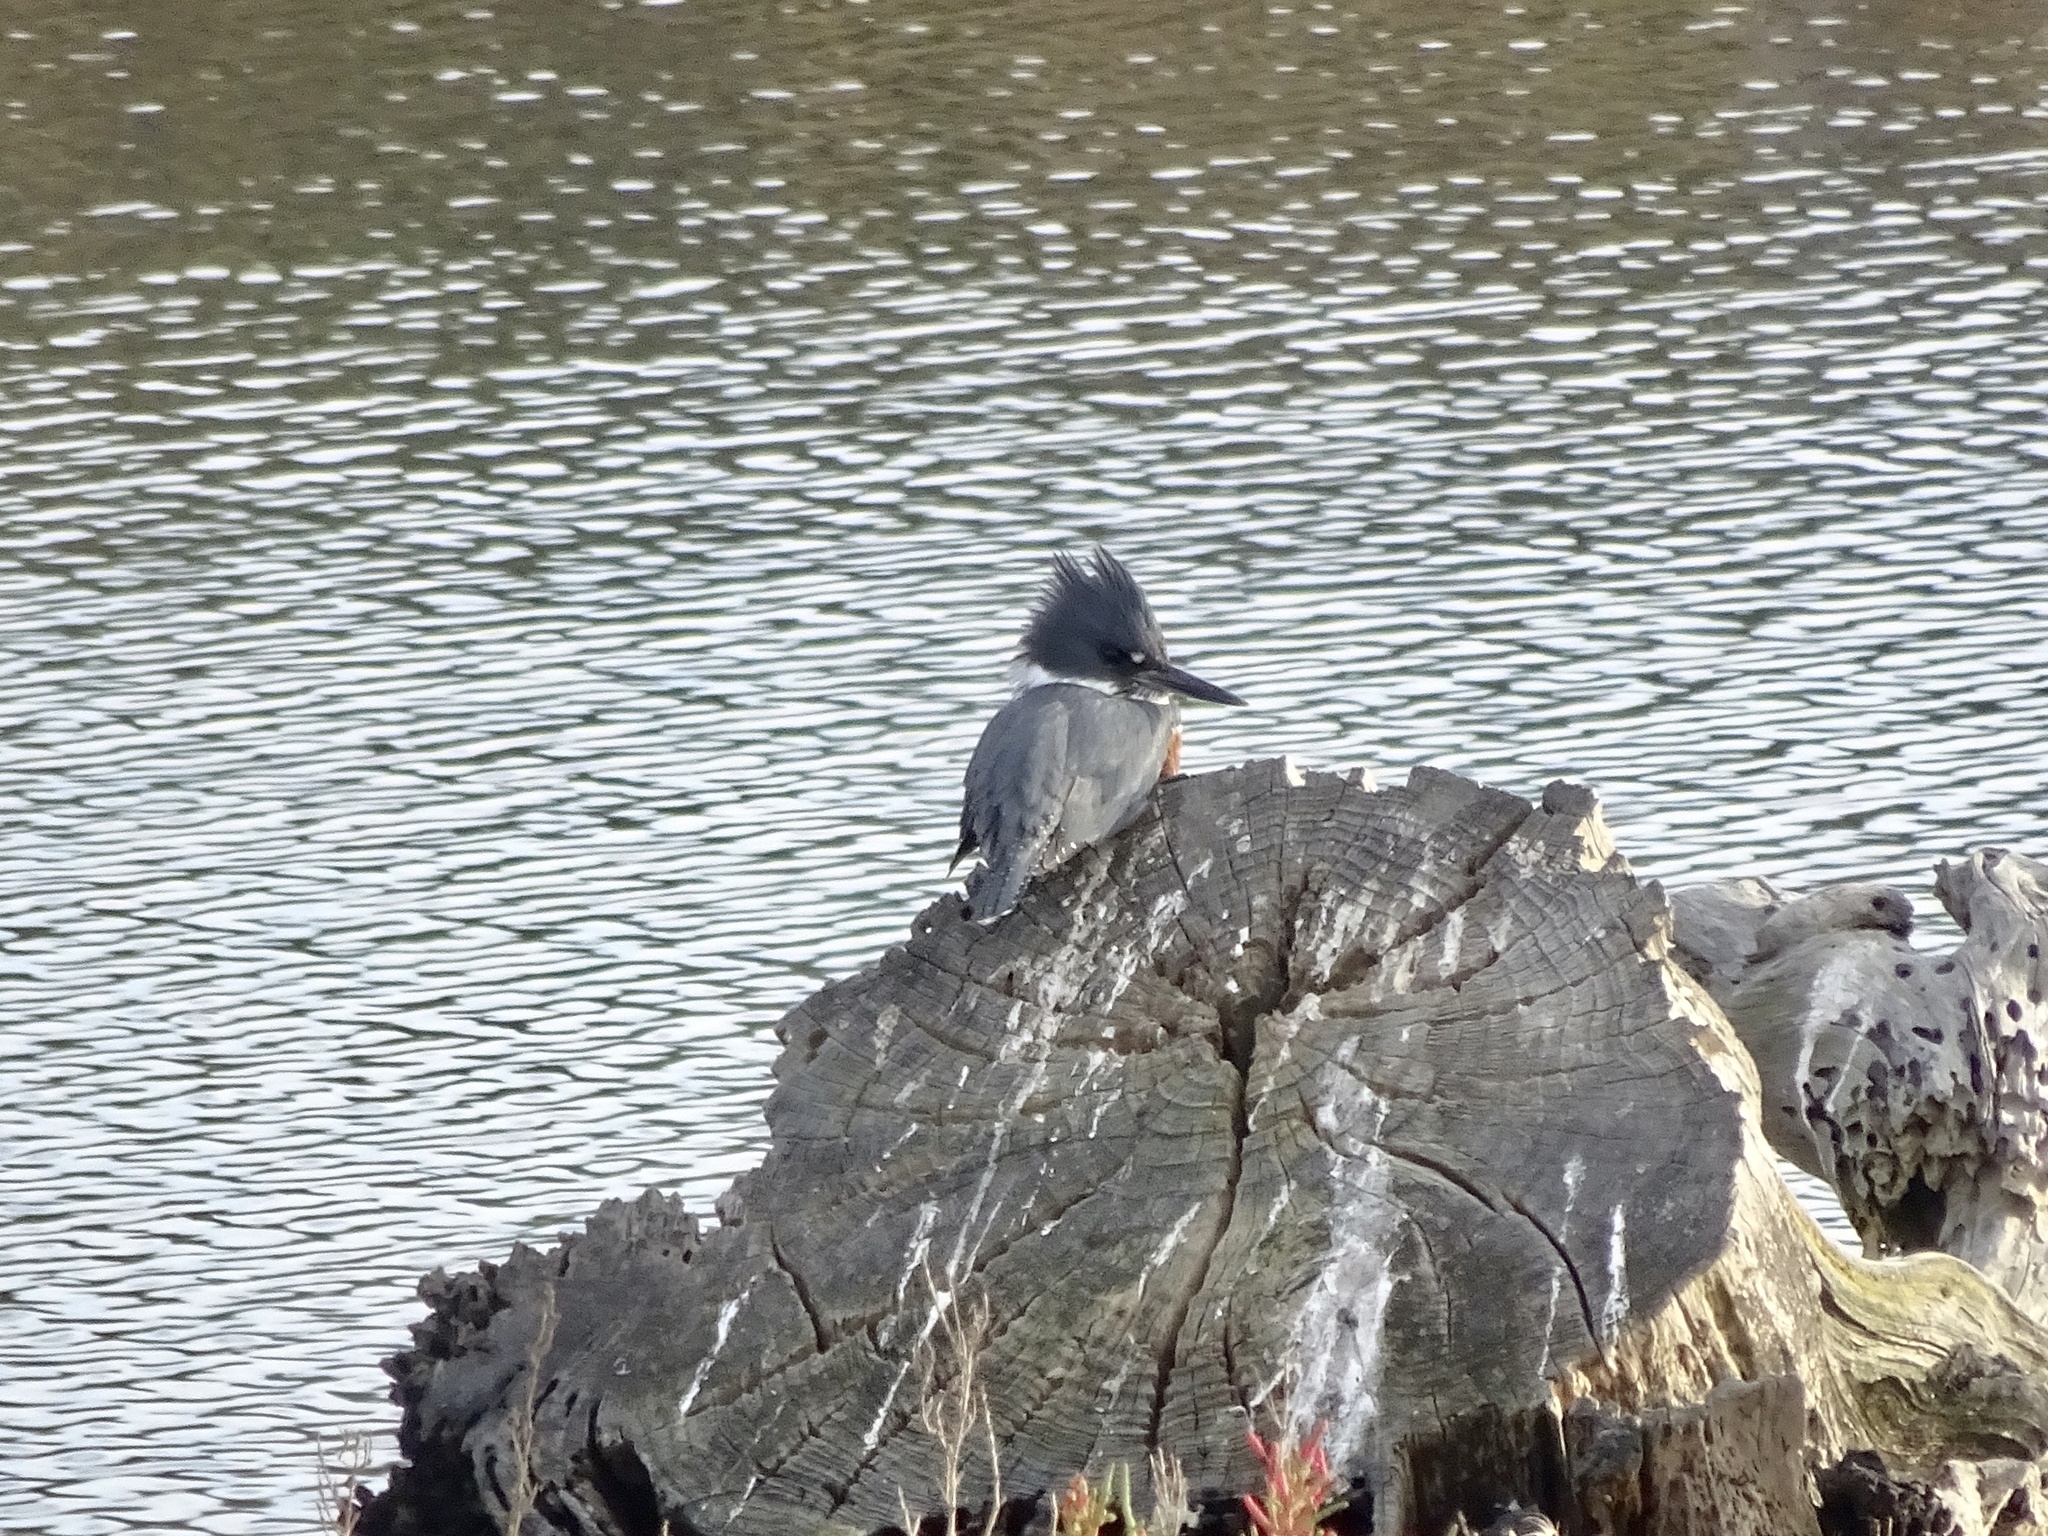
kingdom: Animalia
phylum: Chordata
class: Aves
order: Coraciiformes
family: Alcedinidae
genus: Megaceryle
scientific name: Megaceryle alcyon
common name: Belted kingfisher
